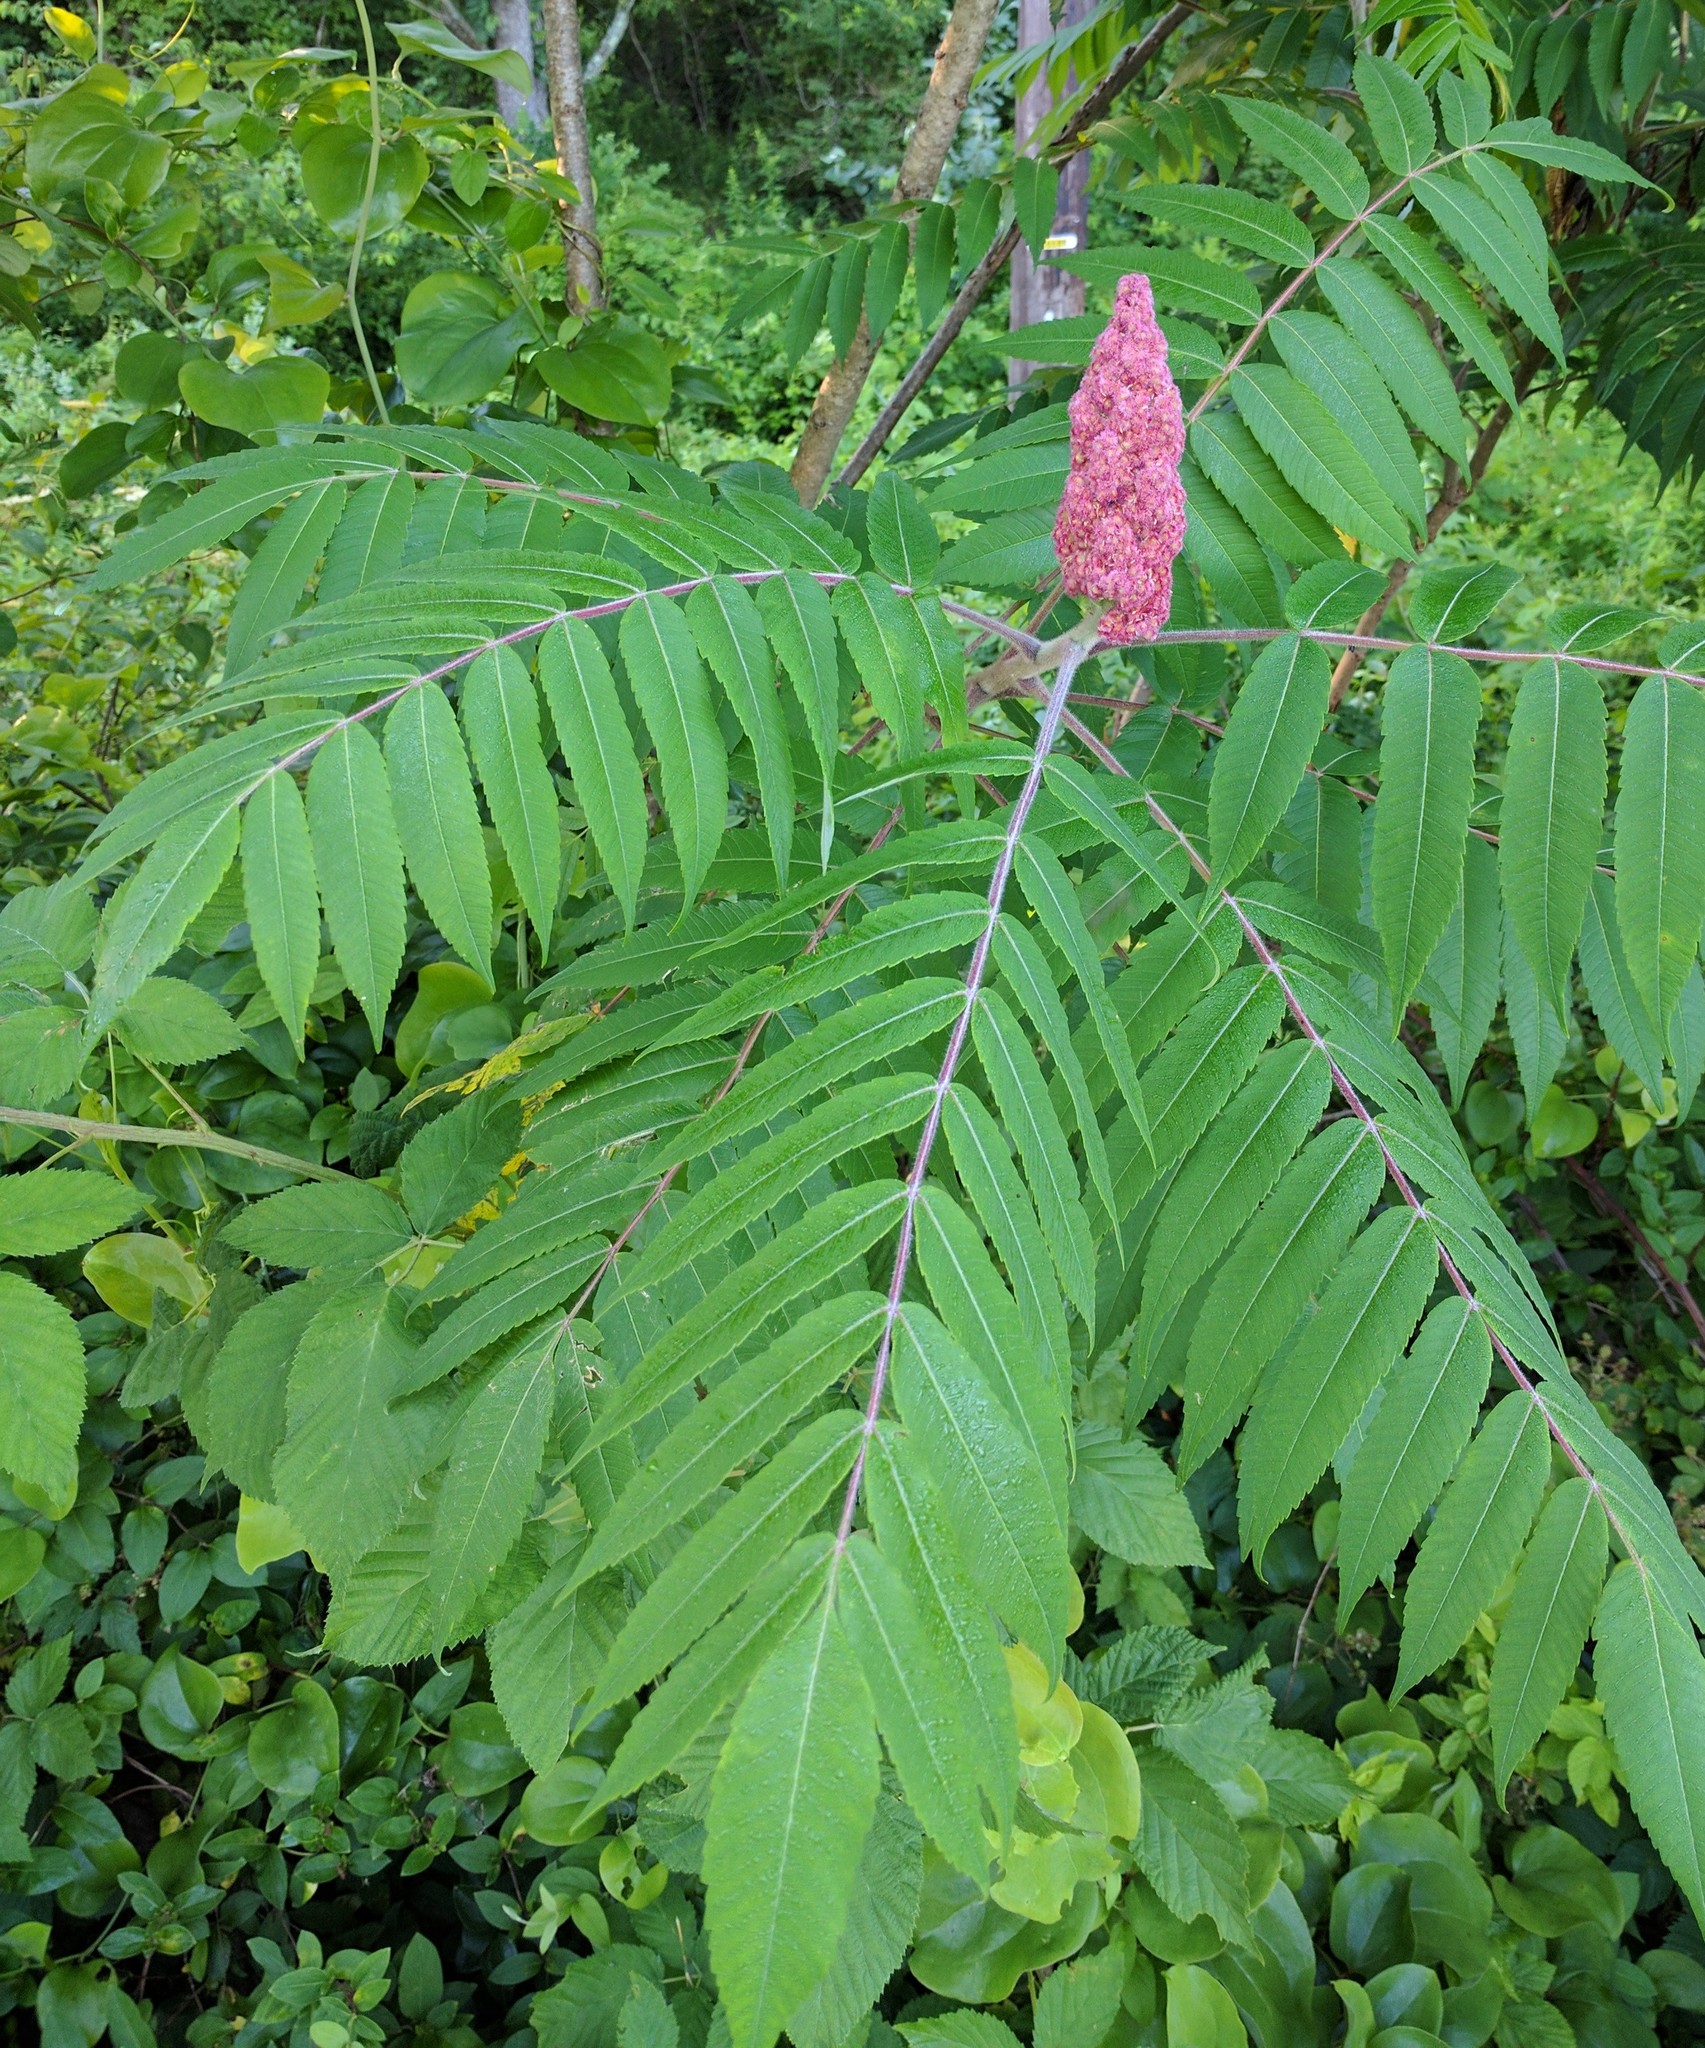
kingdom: Plantae
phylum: Tracheophyta
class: Magnoliopsida
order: Sapindales
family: Anacardiaceae
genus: Rhus
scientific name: Rhus typhina
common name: Staghorn sumac
